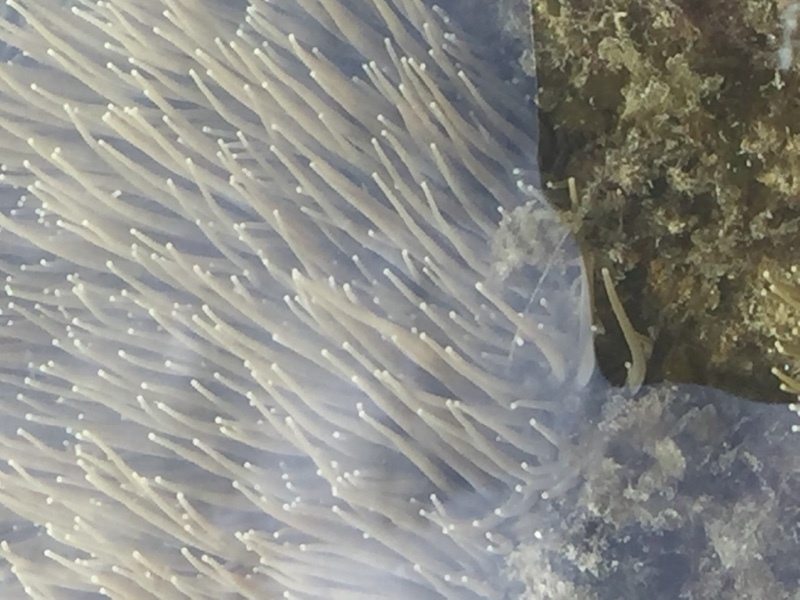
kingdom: Animalia
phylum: Cnidaria
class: Anthozoa
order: Actiniaria
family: Actiniidae
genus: Anemonia
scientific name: Anemonia viridis
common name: Snakelocks anemone
